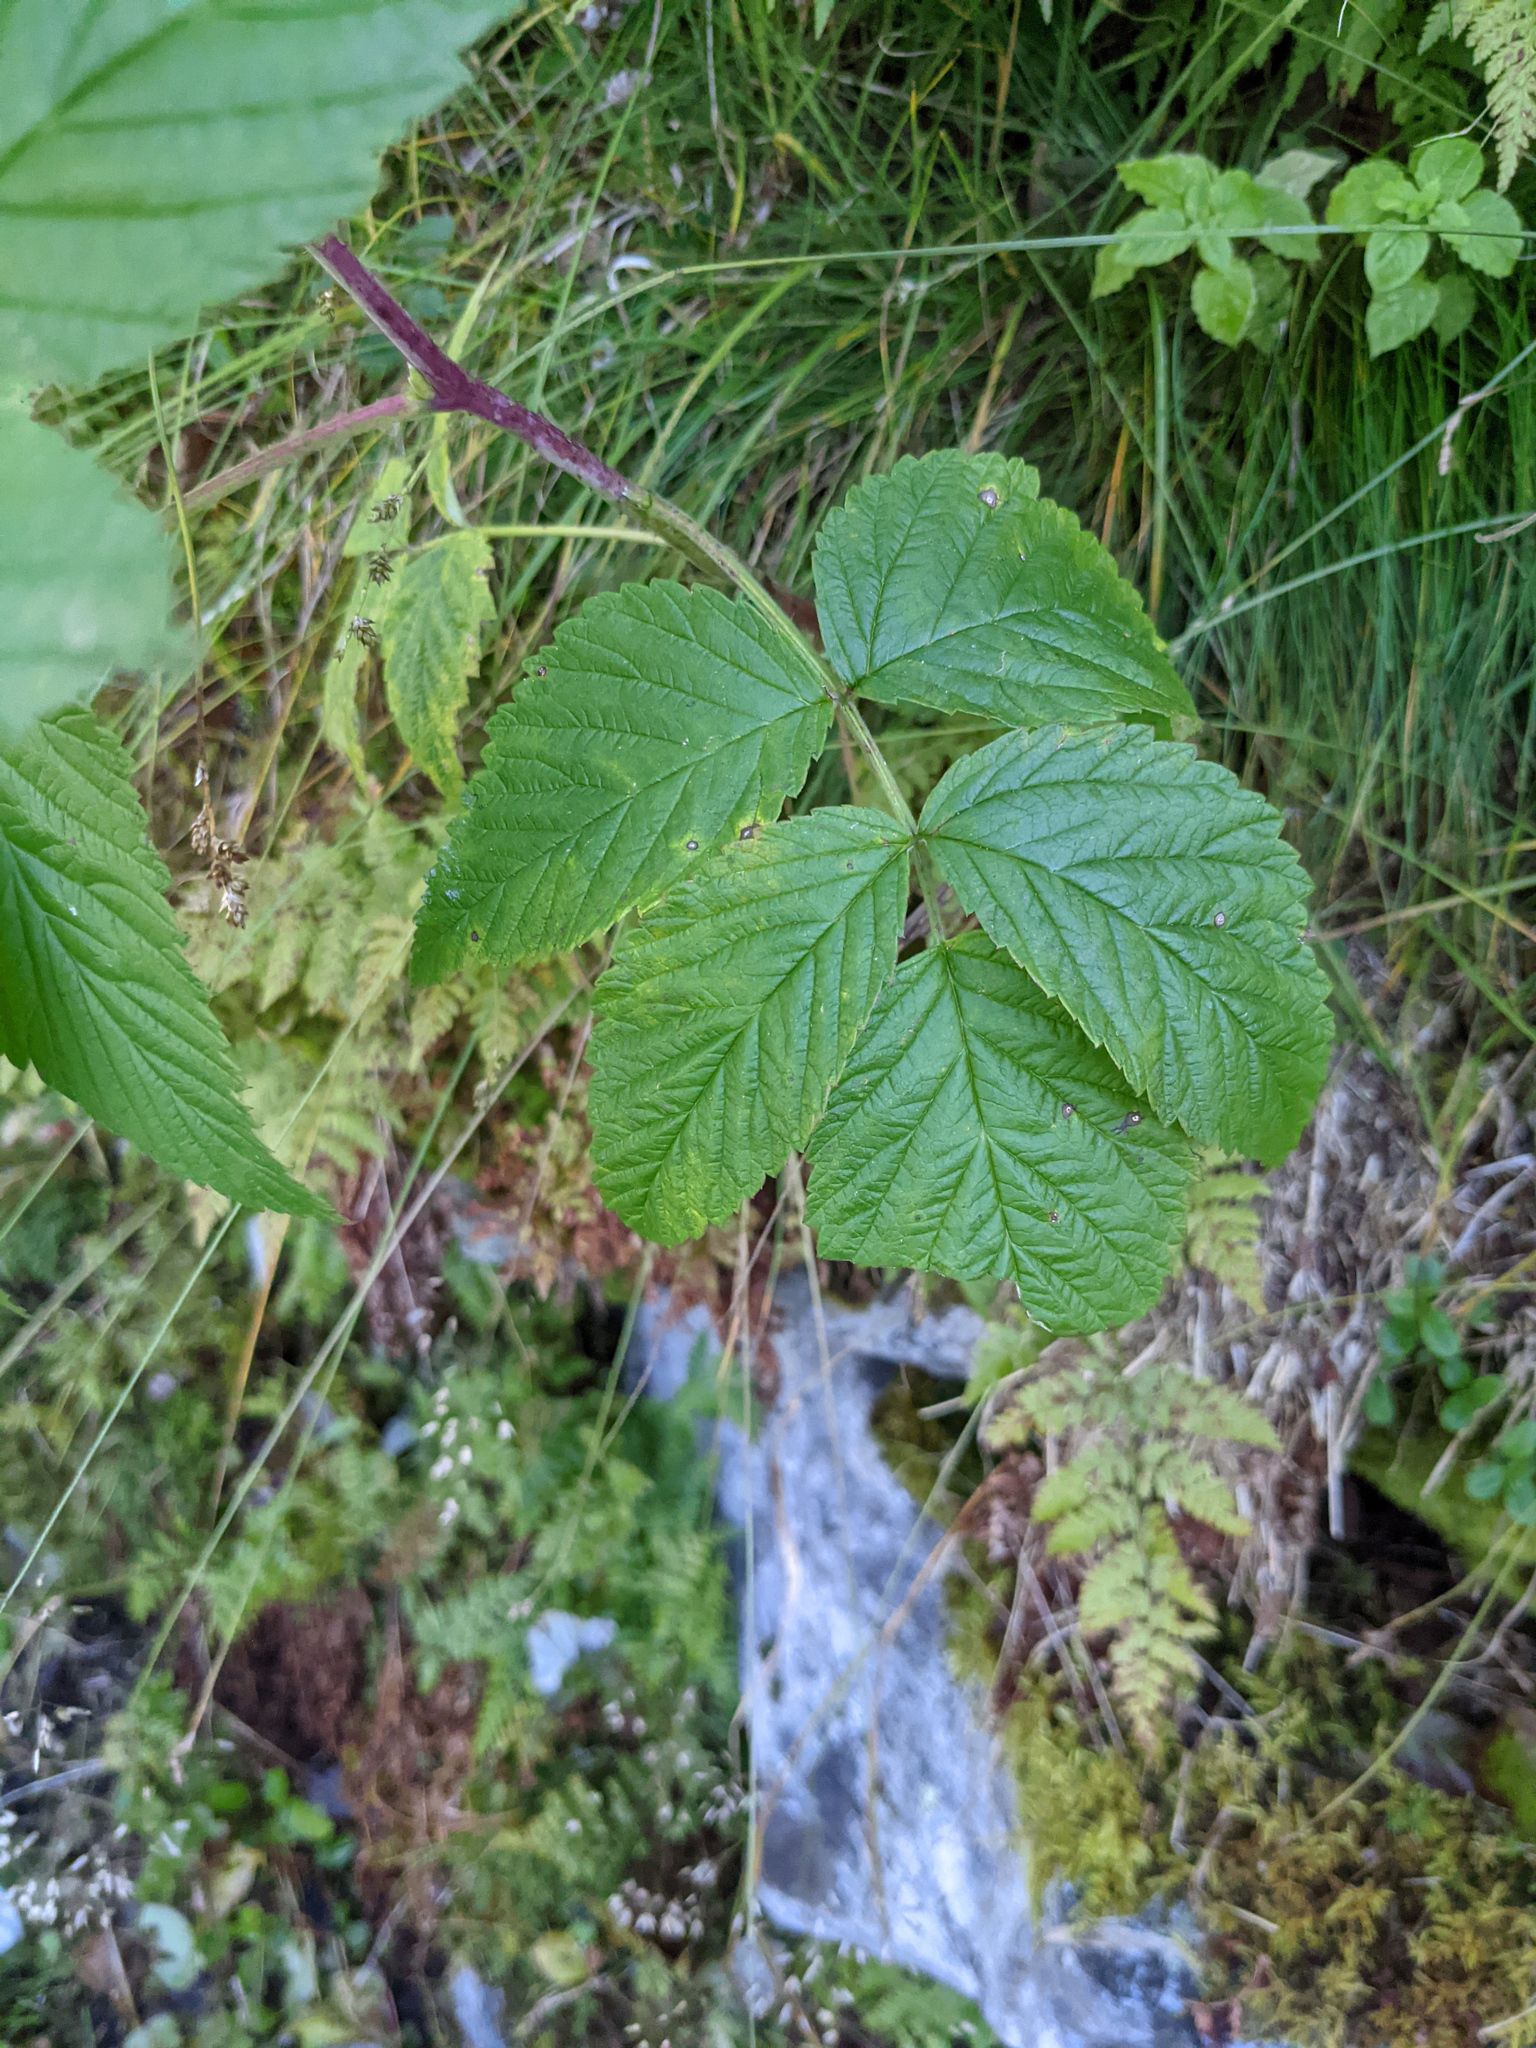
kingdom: Plantae
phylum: Tracheophyta
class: Magnoliopsida
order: Rosales
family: Rosaceae
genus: Rubus
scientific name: Rubus idaeus
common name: Raspberry
